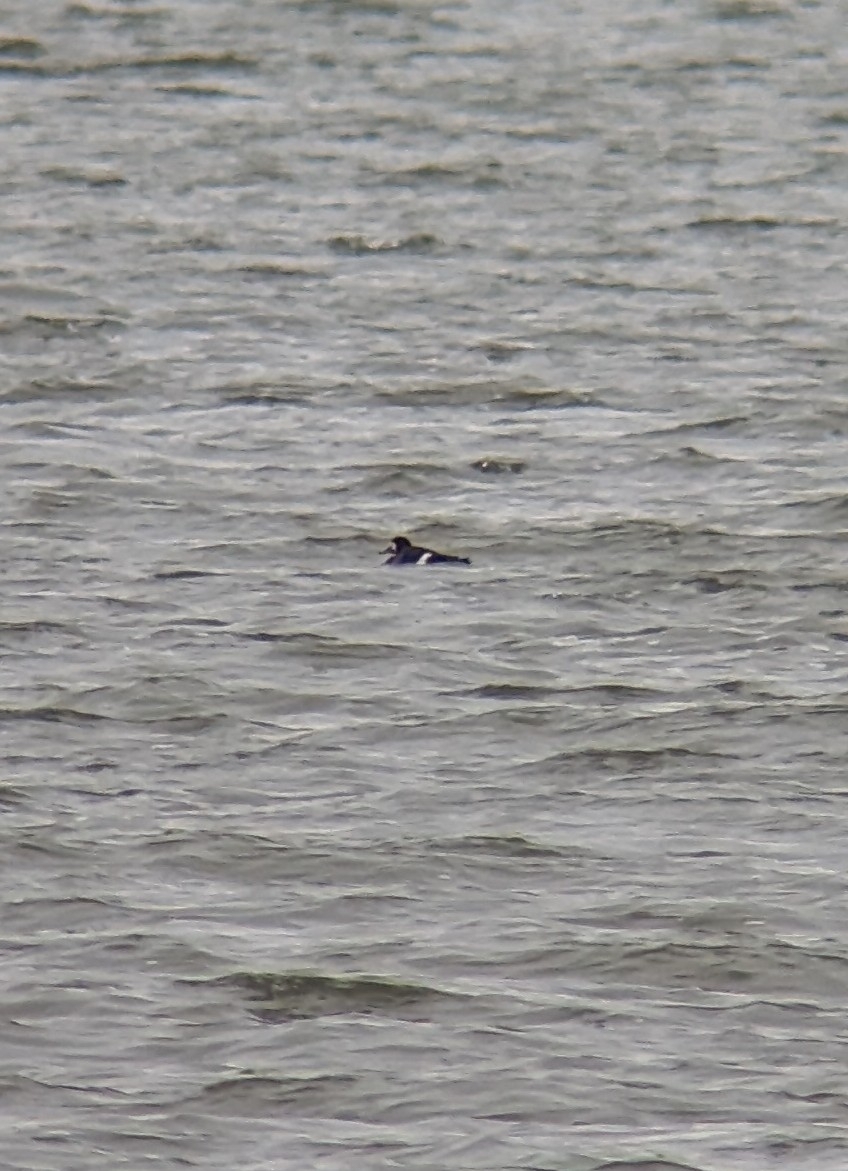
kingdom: Animalia
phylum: Chordata
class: Aves
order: Anseriformes
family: Anatidae
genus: Aythya
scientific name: Aythya marila
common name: Greater scaup
